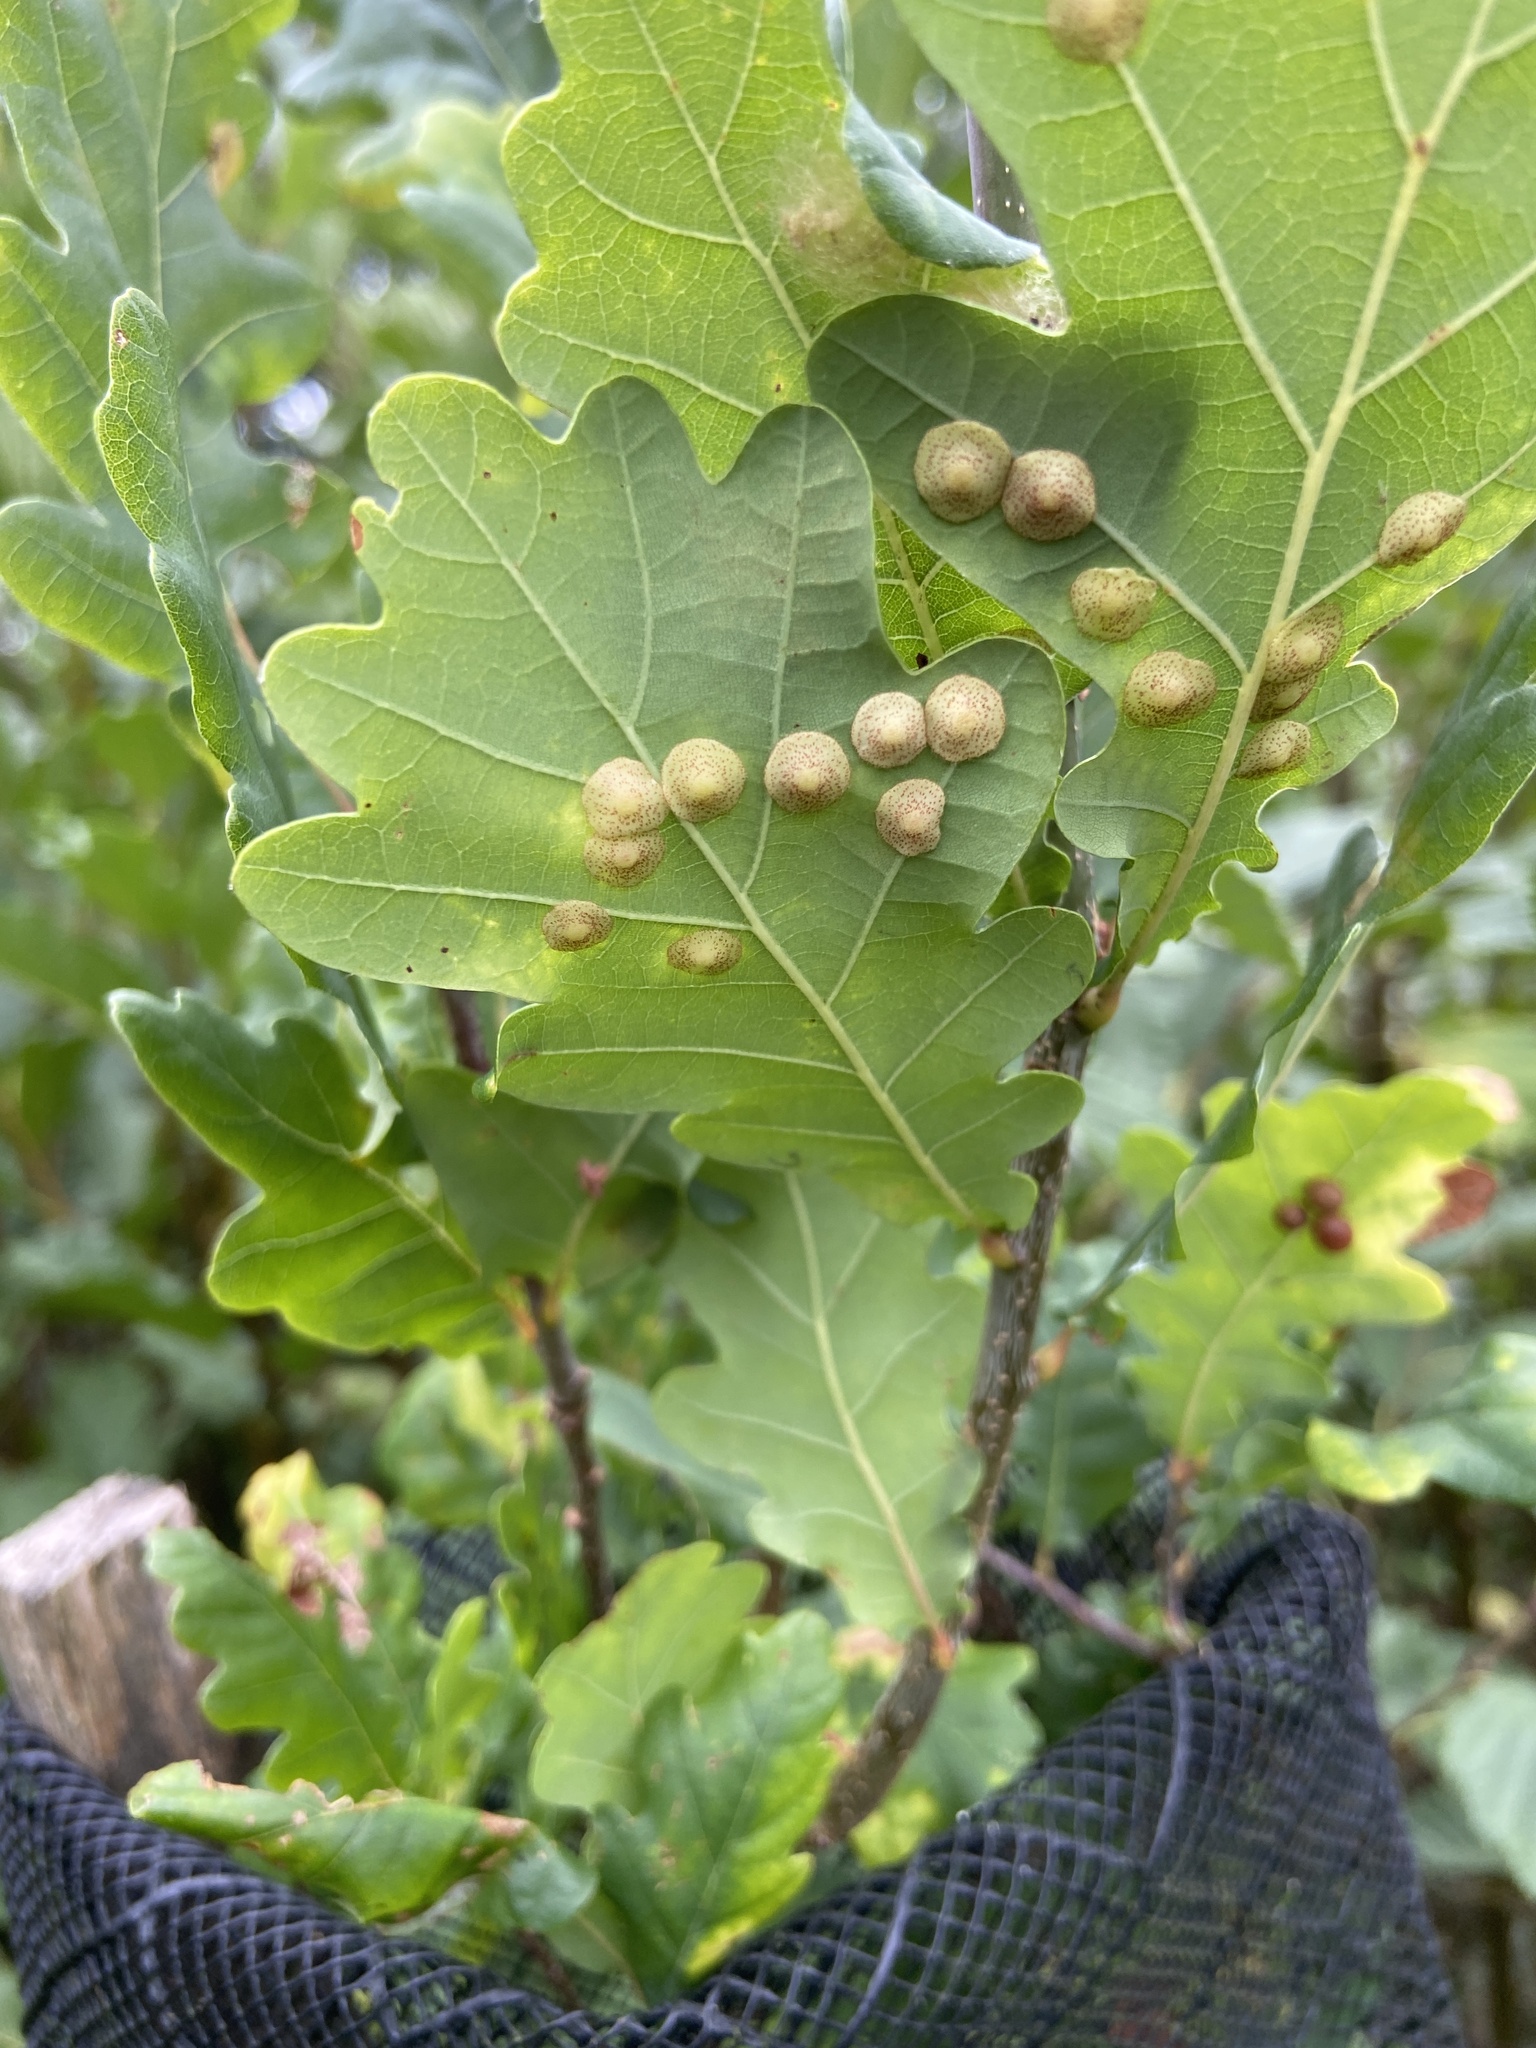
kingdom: Animalia
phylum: Arthropoda
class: Insecta
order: Hymenoptera
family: Cynipidae
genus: Neuroterus
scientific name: Neuroterus quercusbaccarum
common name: Common spangle gall
